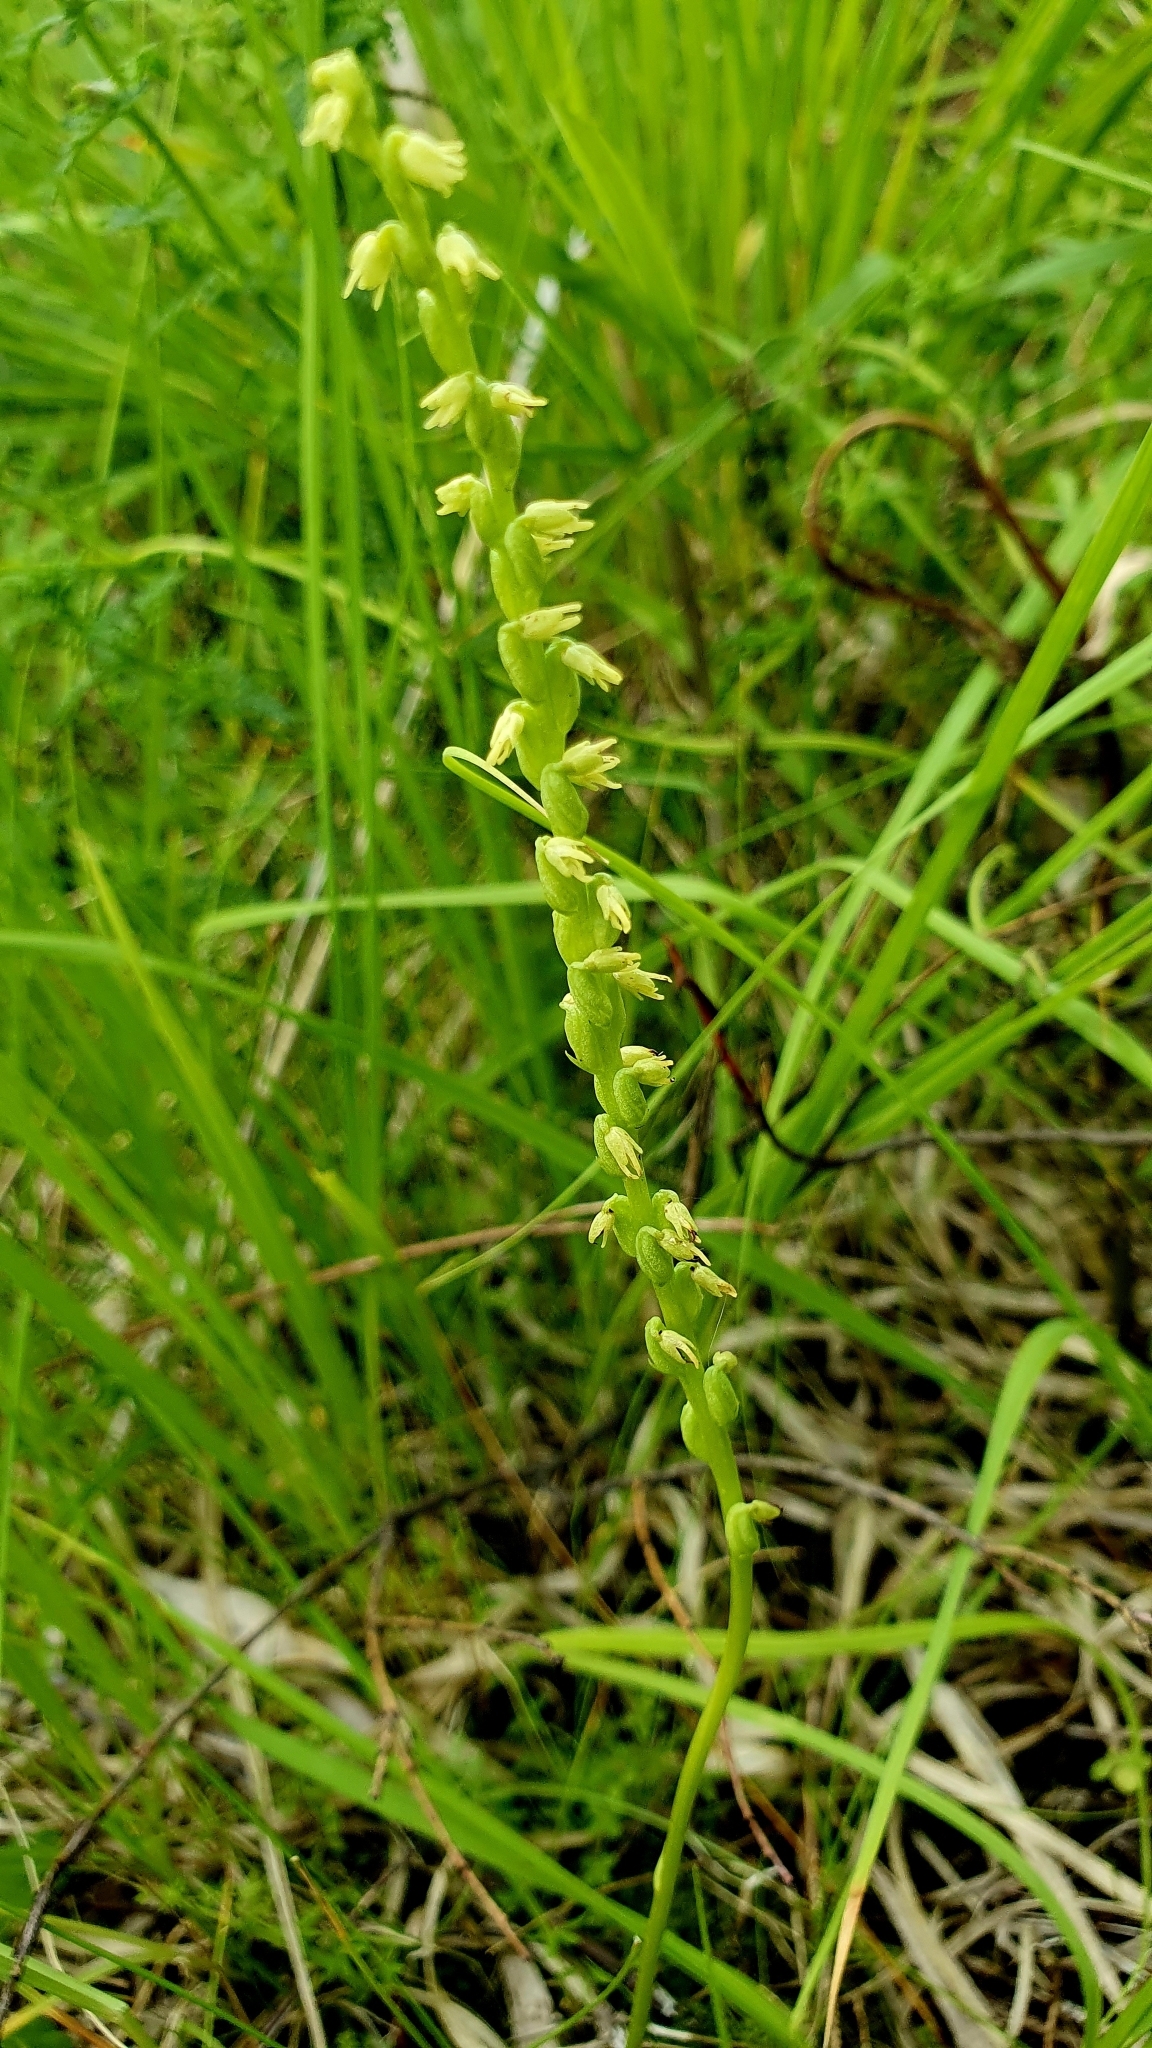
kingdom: Plantae
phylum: Tracheophyta
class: Liliopsida
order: Asparagales
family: Orchidaceae
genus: Herminium
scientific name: Herminium monorchis
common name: Musk orchid
